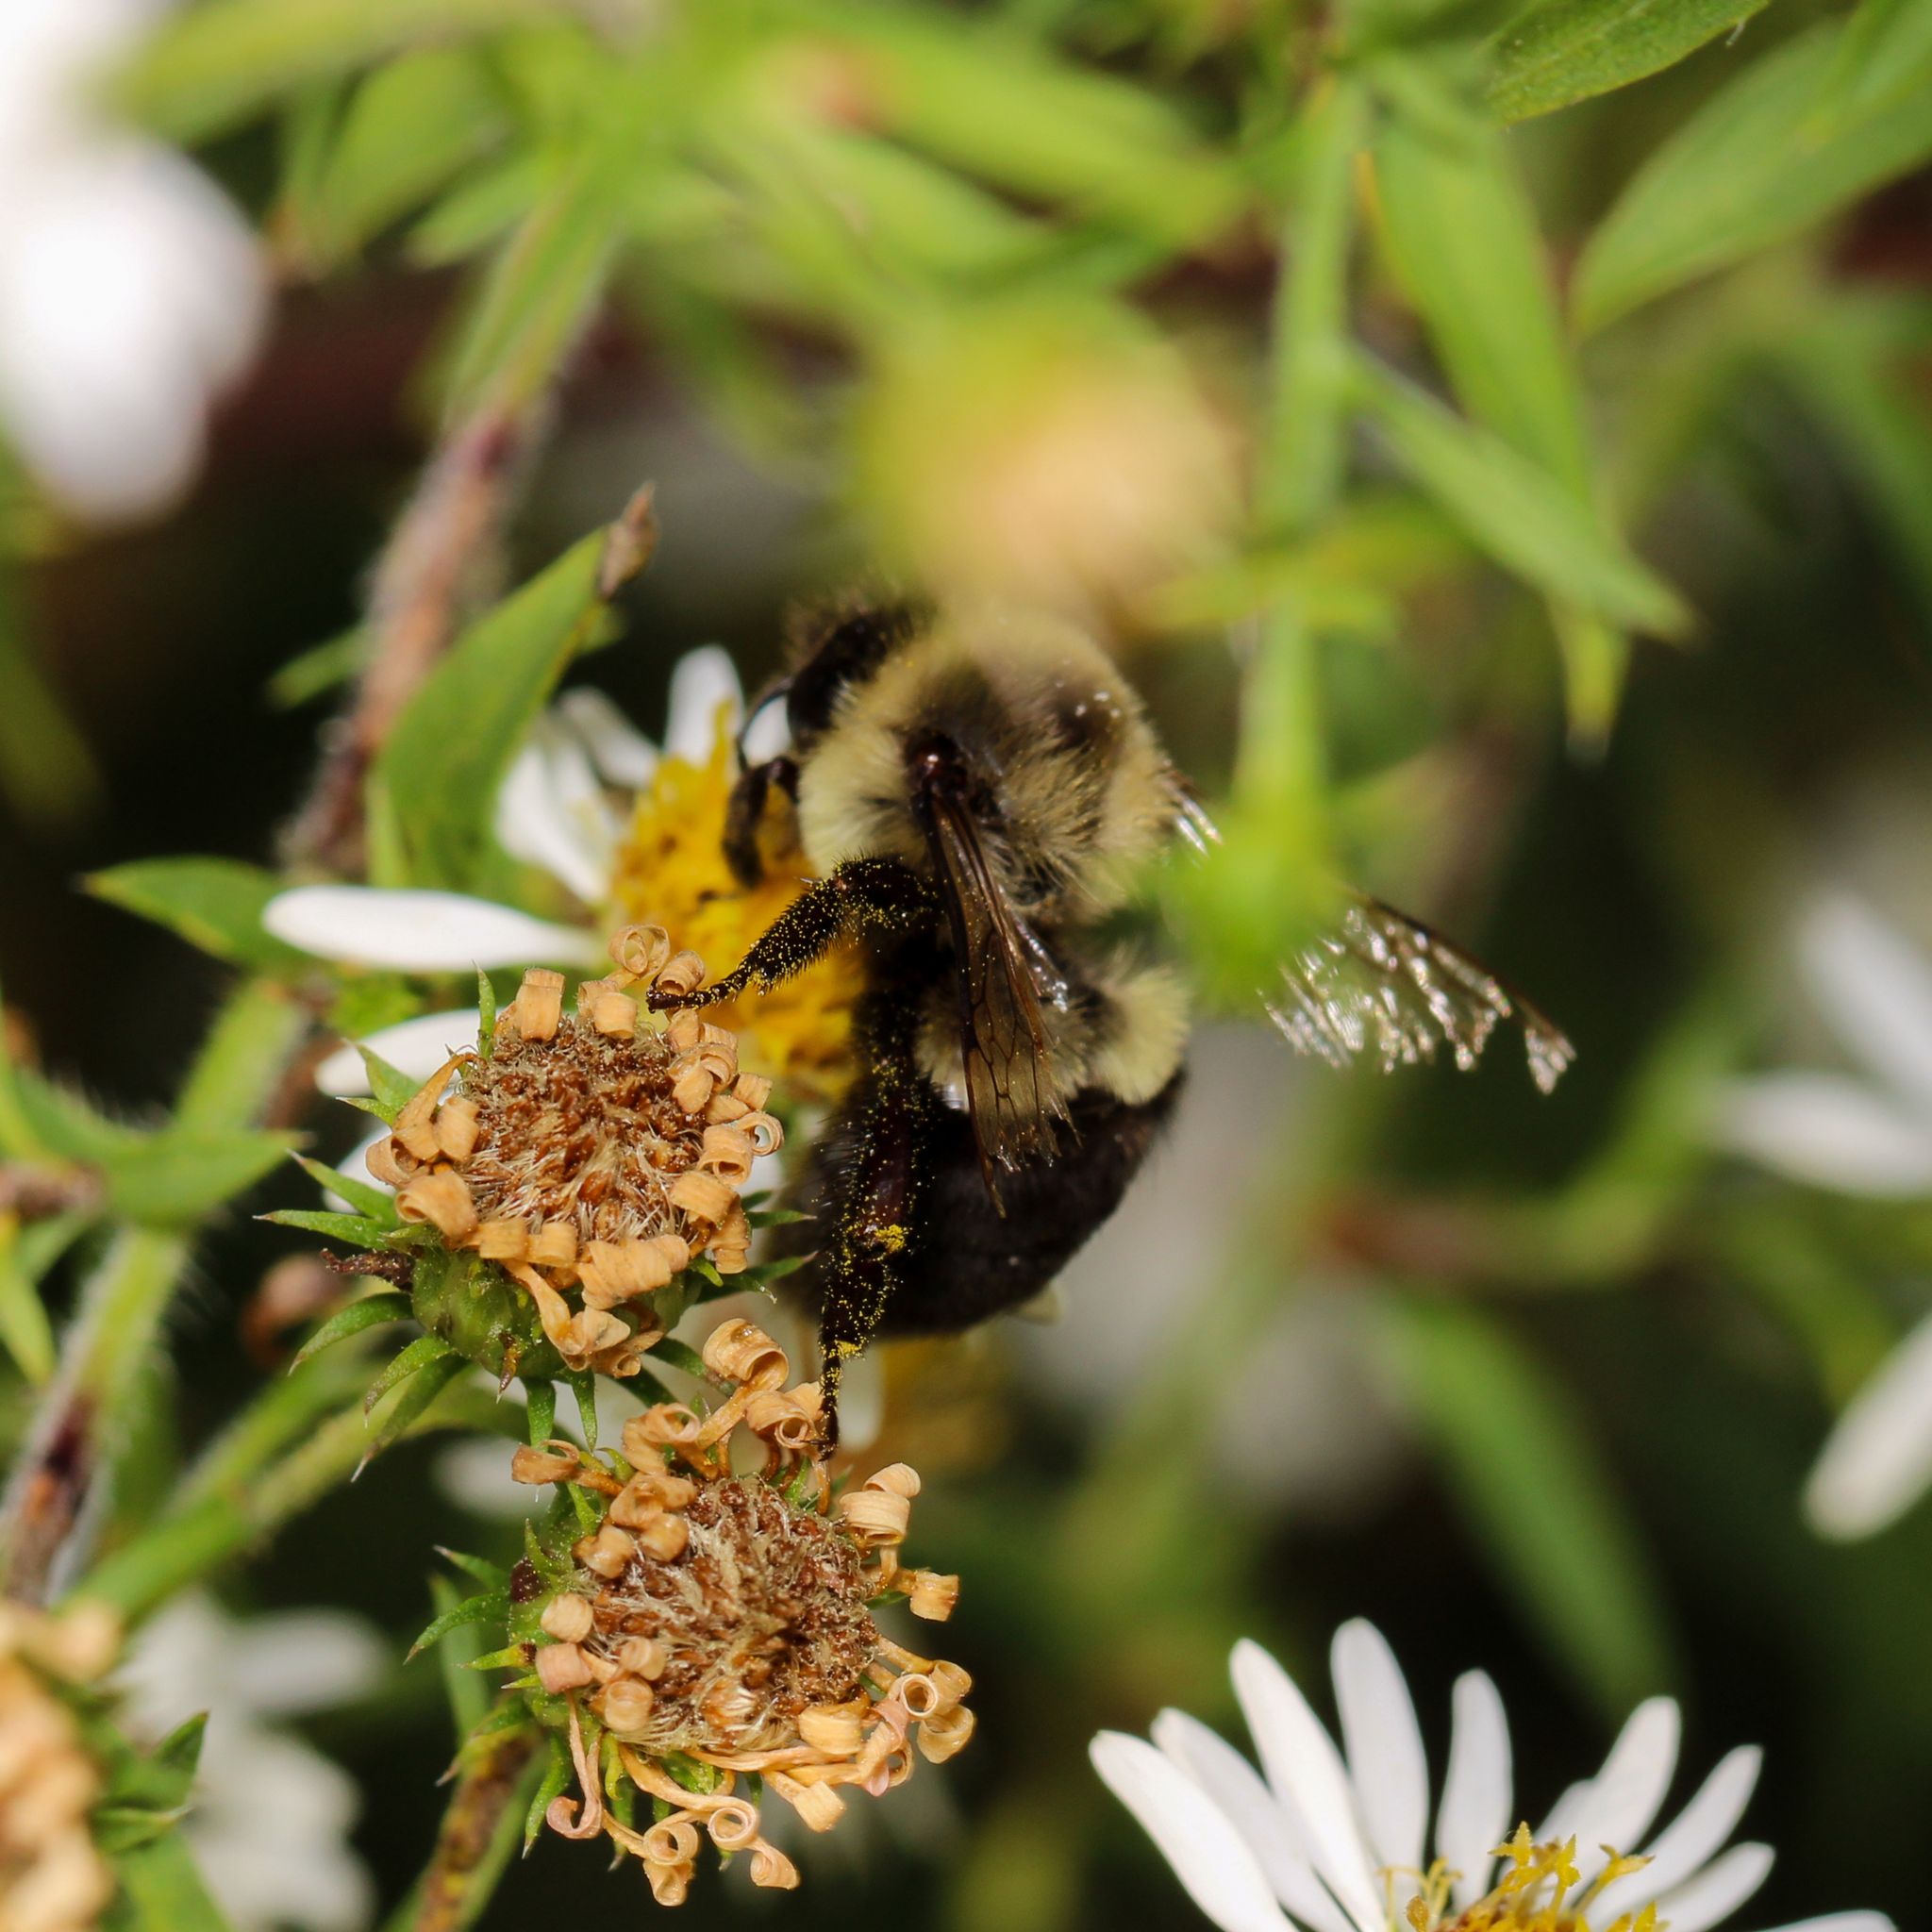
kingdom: Animalia
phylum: Arthropoda
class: Insecta
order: Hymenoptera
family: Apidae
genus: Bombus
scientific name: Bombus impatiens
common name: Common eastern bumble bee
